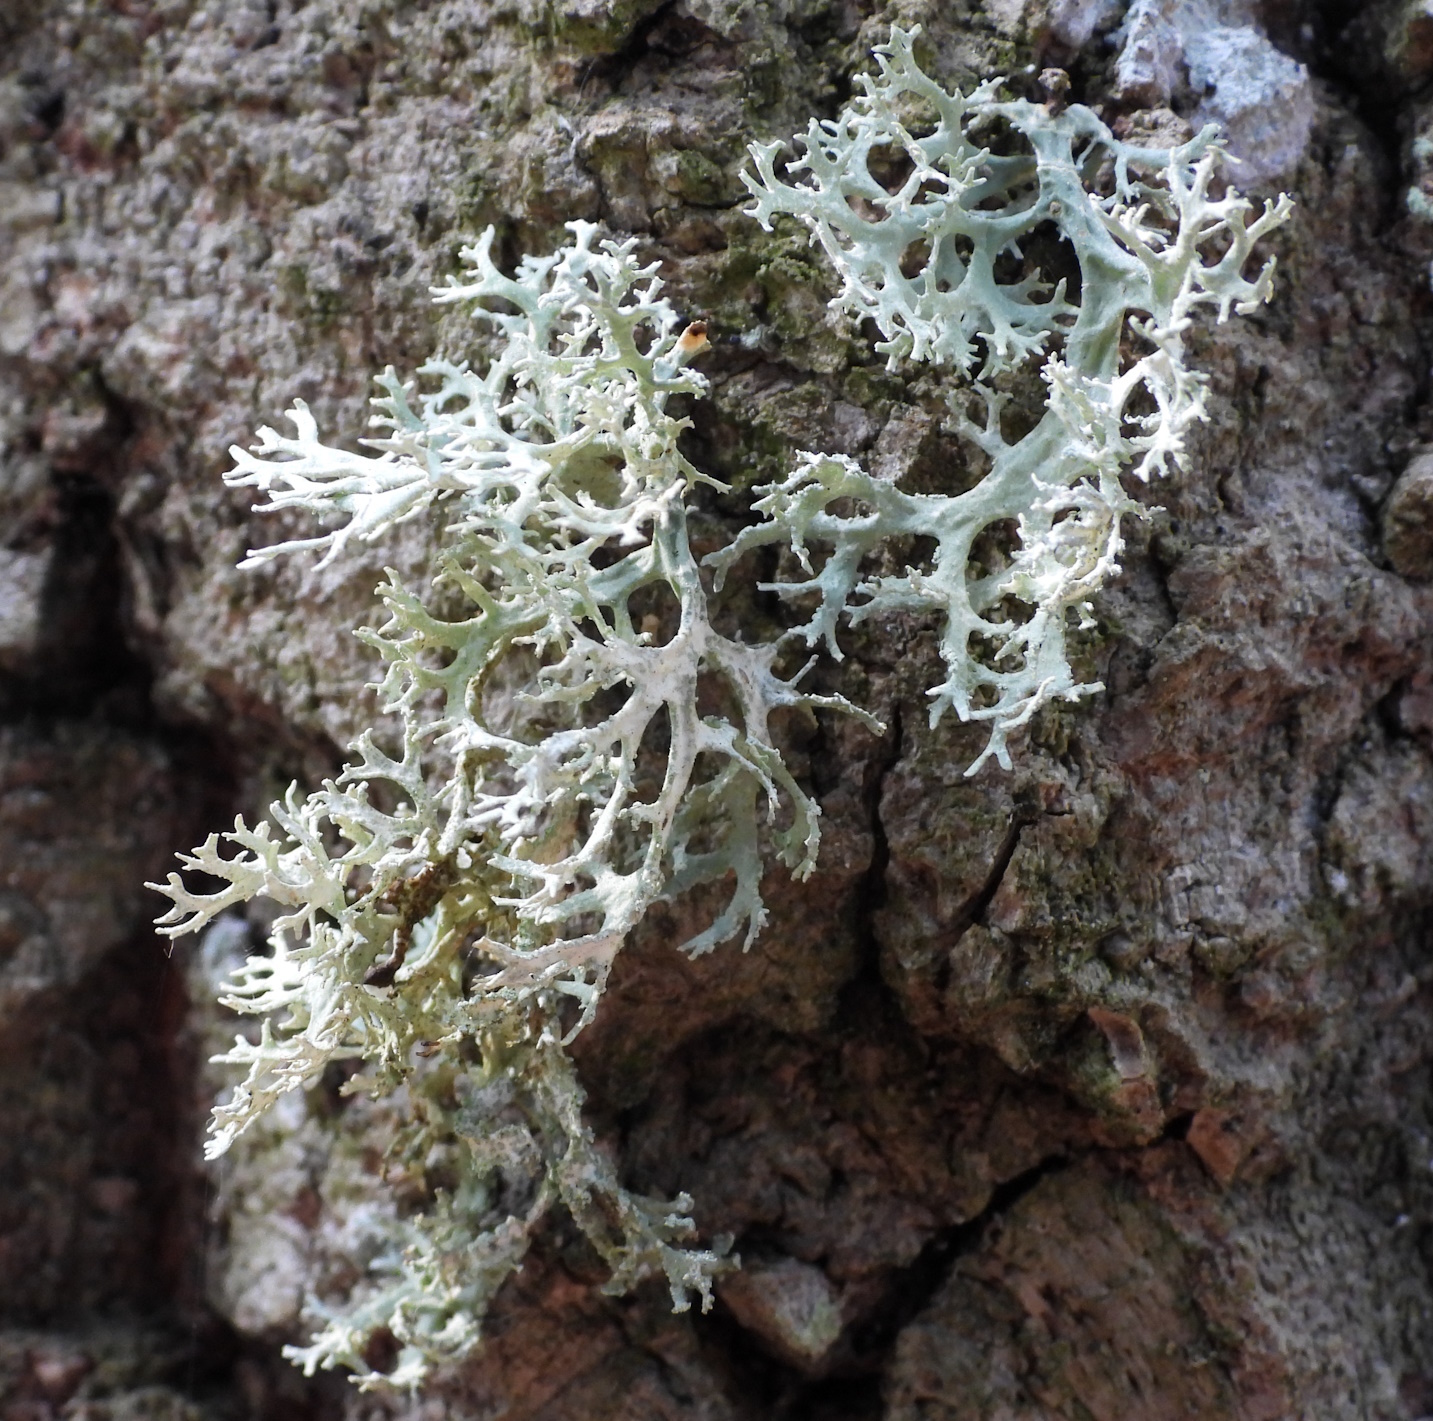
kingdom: Fungi
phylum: Ascomycota
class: Lecanoromycetes
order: Lecanorales
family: Parmeliaceae
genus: Evernia
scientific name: Evernia prunastri
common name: Oak moss
